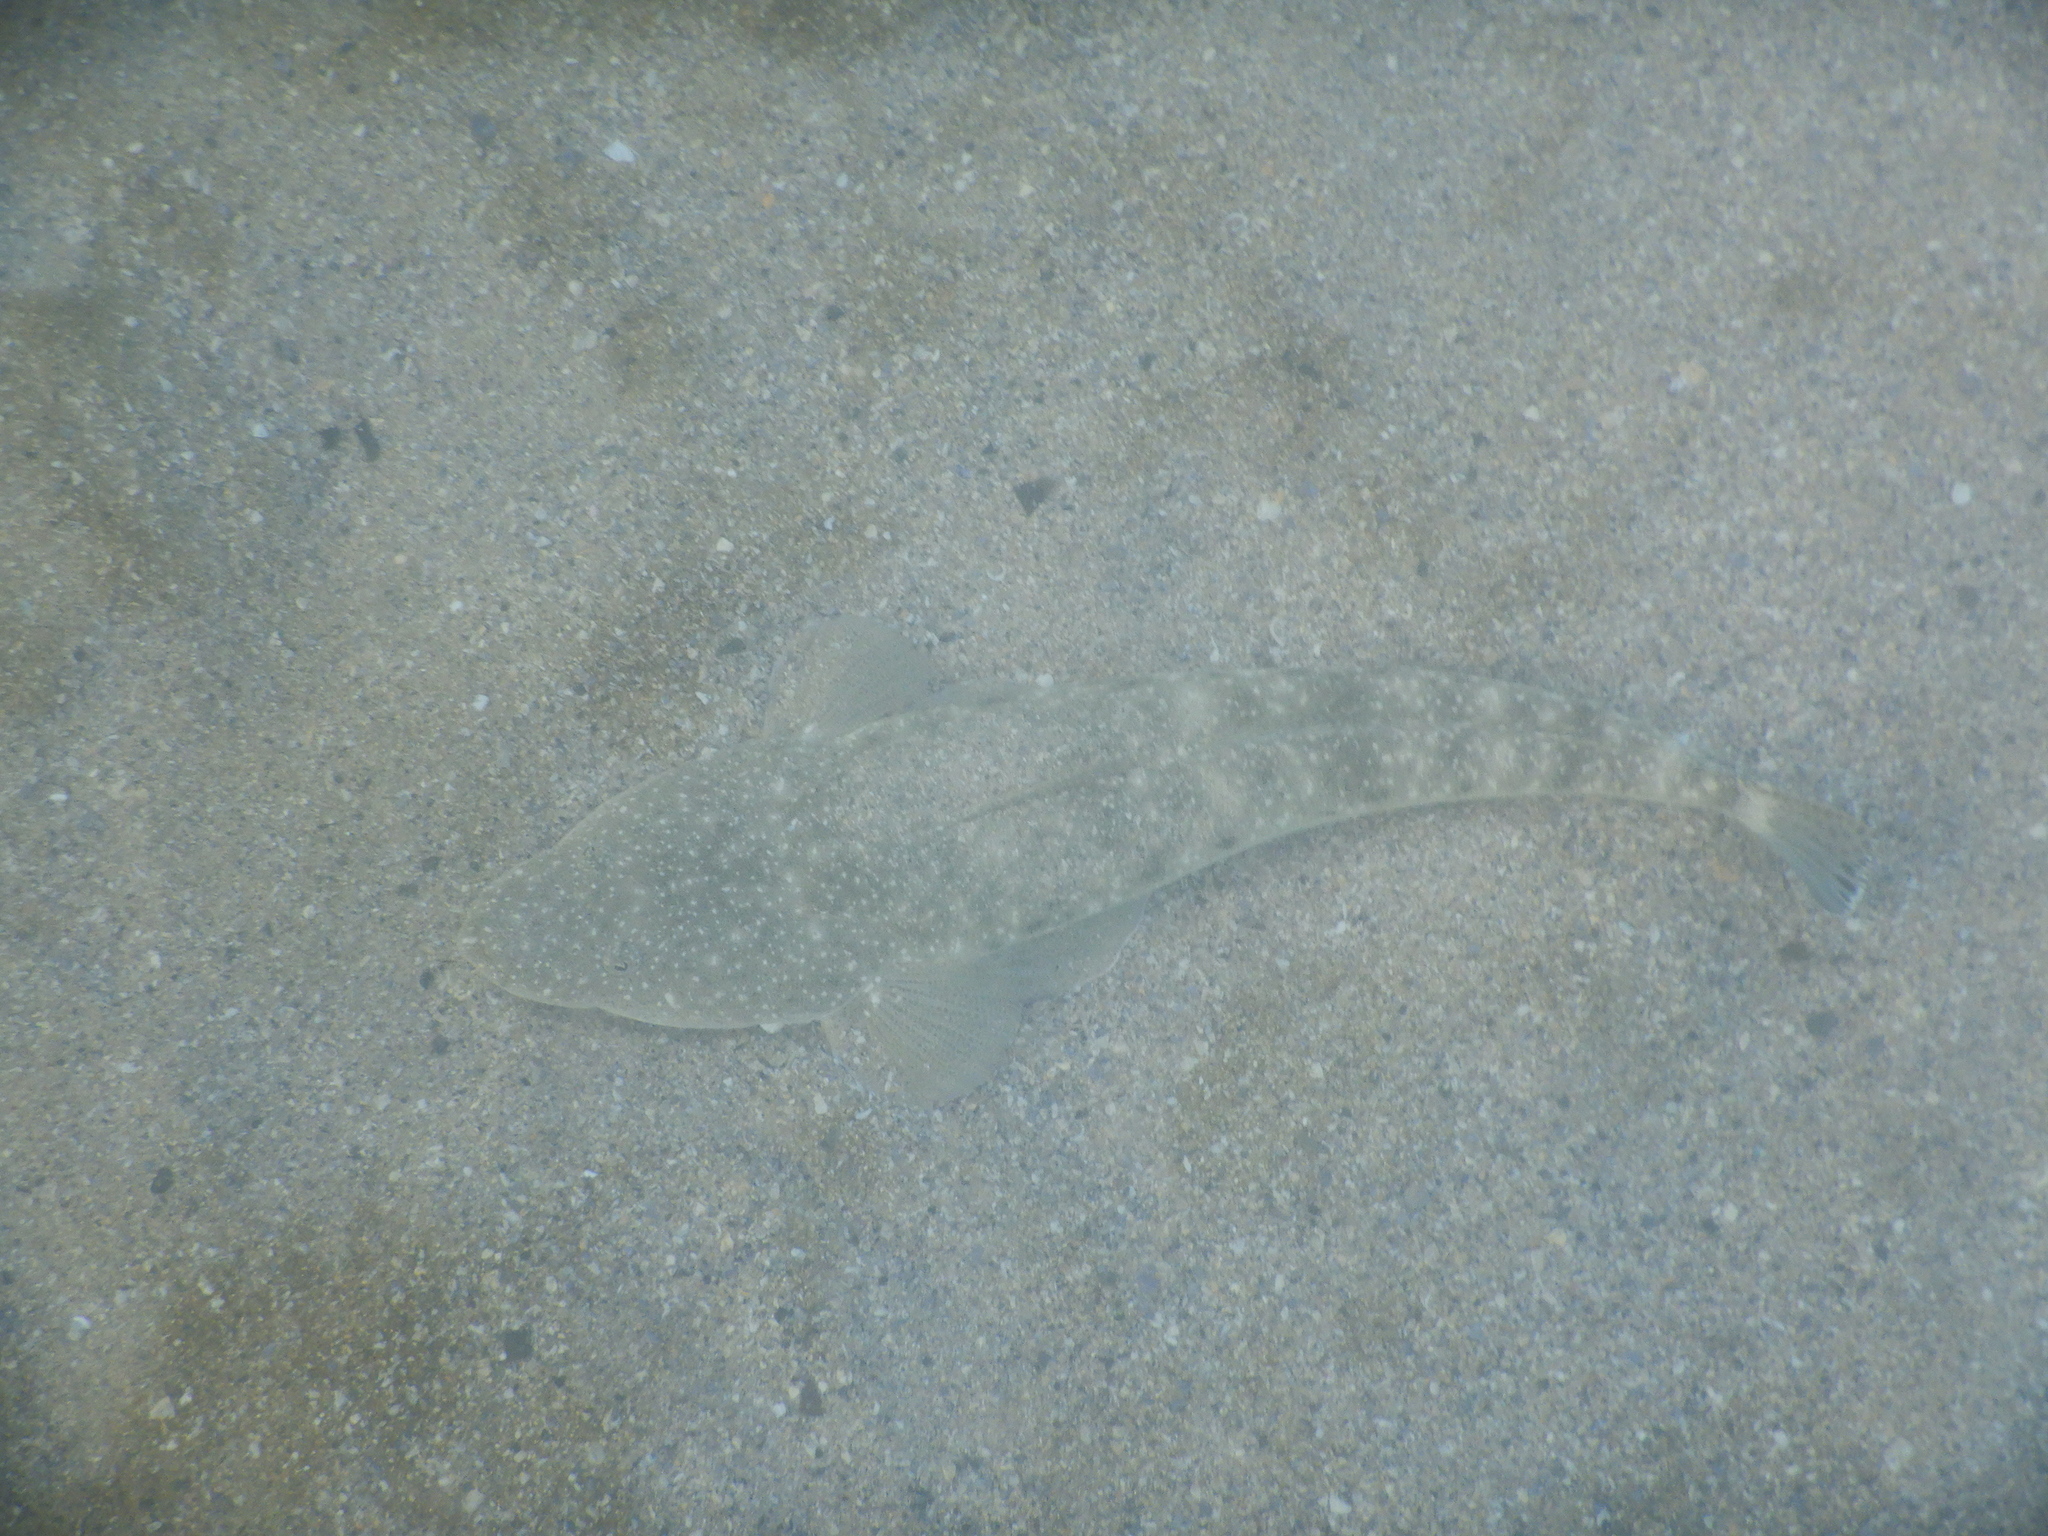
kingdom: Animalia
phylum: Chordata
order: Scorpaeniformes
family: Platycephalidae
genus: Platycephalus
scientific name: Platycephalus fuscus
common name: Dusky flathead
